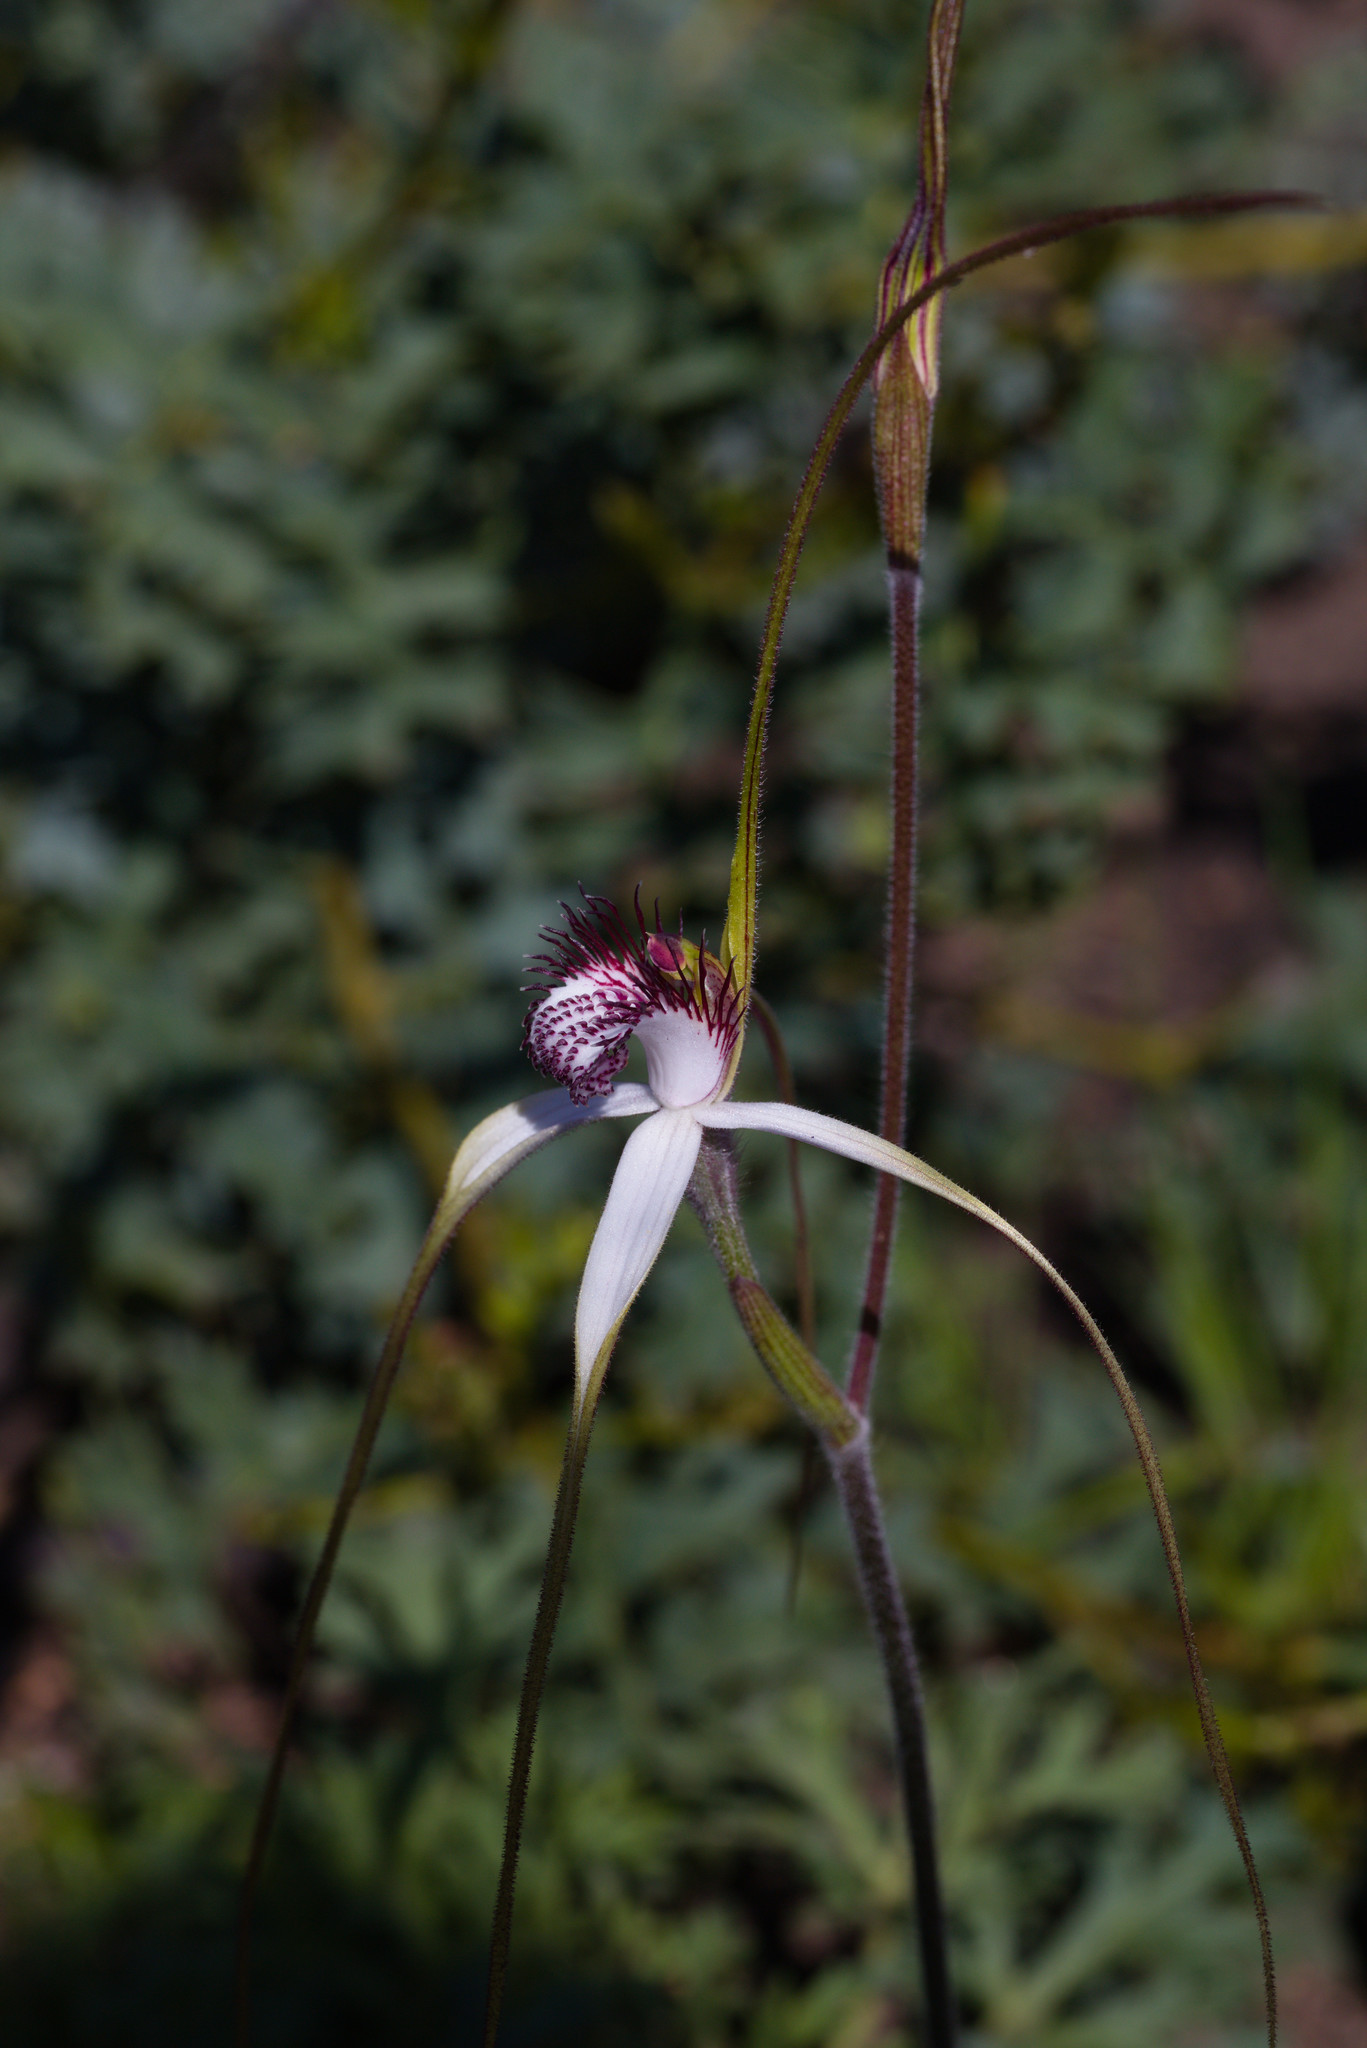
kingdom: Plantae
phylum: Tracheophyta
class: Liliopsida
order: Asparagales
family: Orchidaceae
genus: Caladenia
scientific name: Caladenia splendens
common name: Splendid spider orchid
